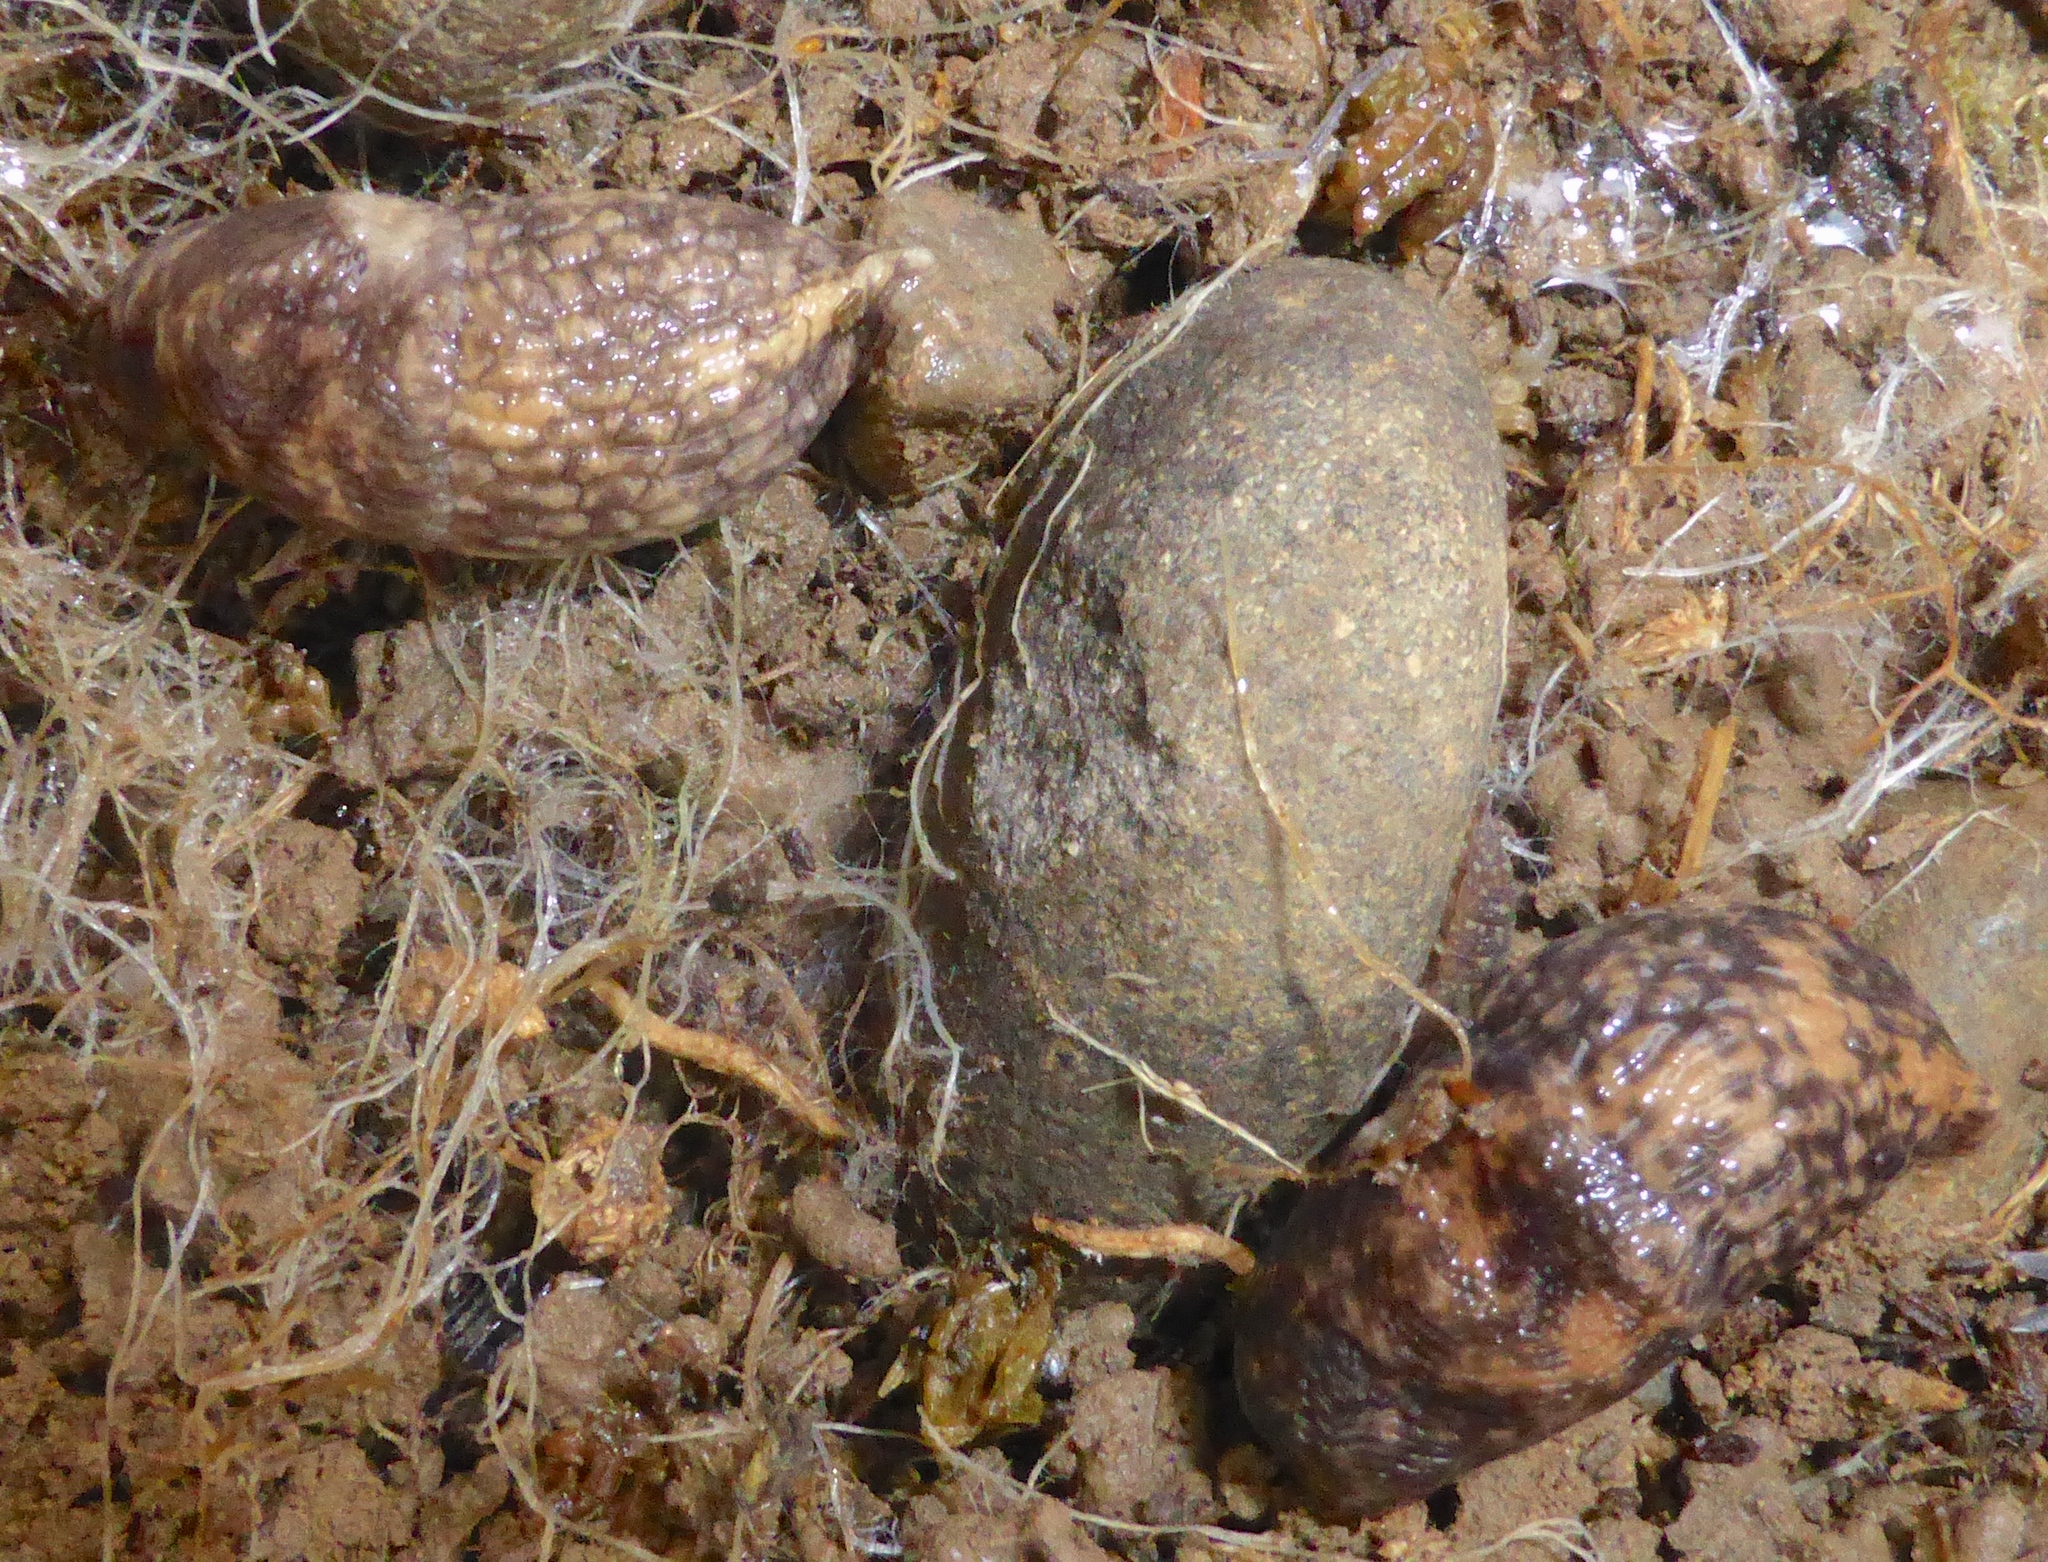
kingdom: Animalia
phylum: Mollusca
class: Gastropoda
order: Stylommatophora
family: Agriolimacidae
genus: Deroceras
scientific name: Deroceras reticulatum
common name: Gray field slug
